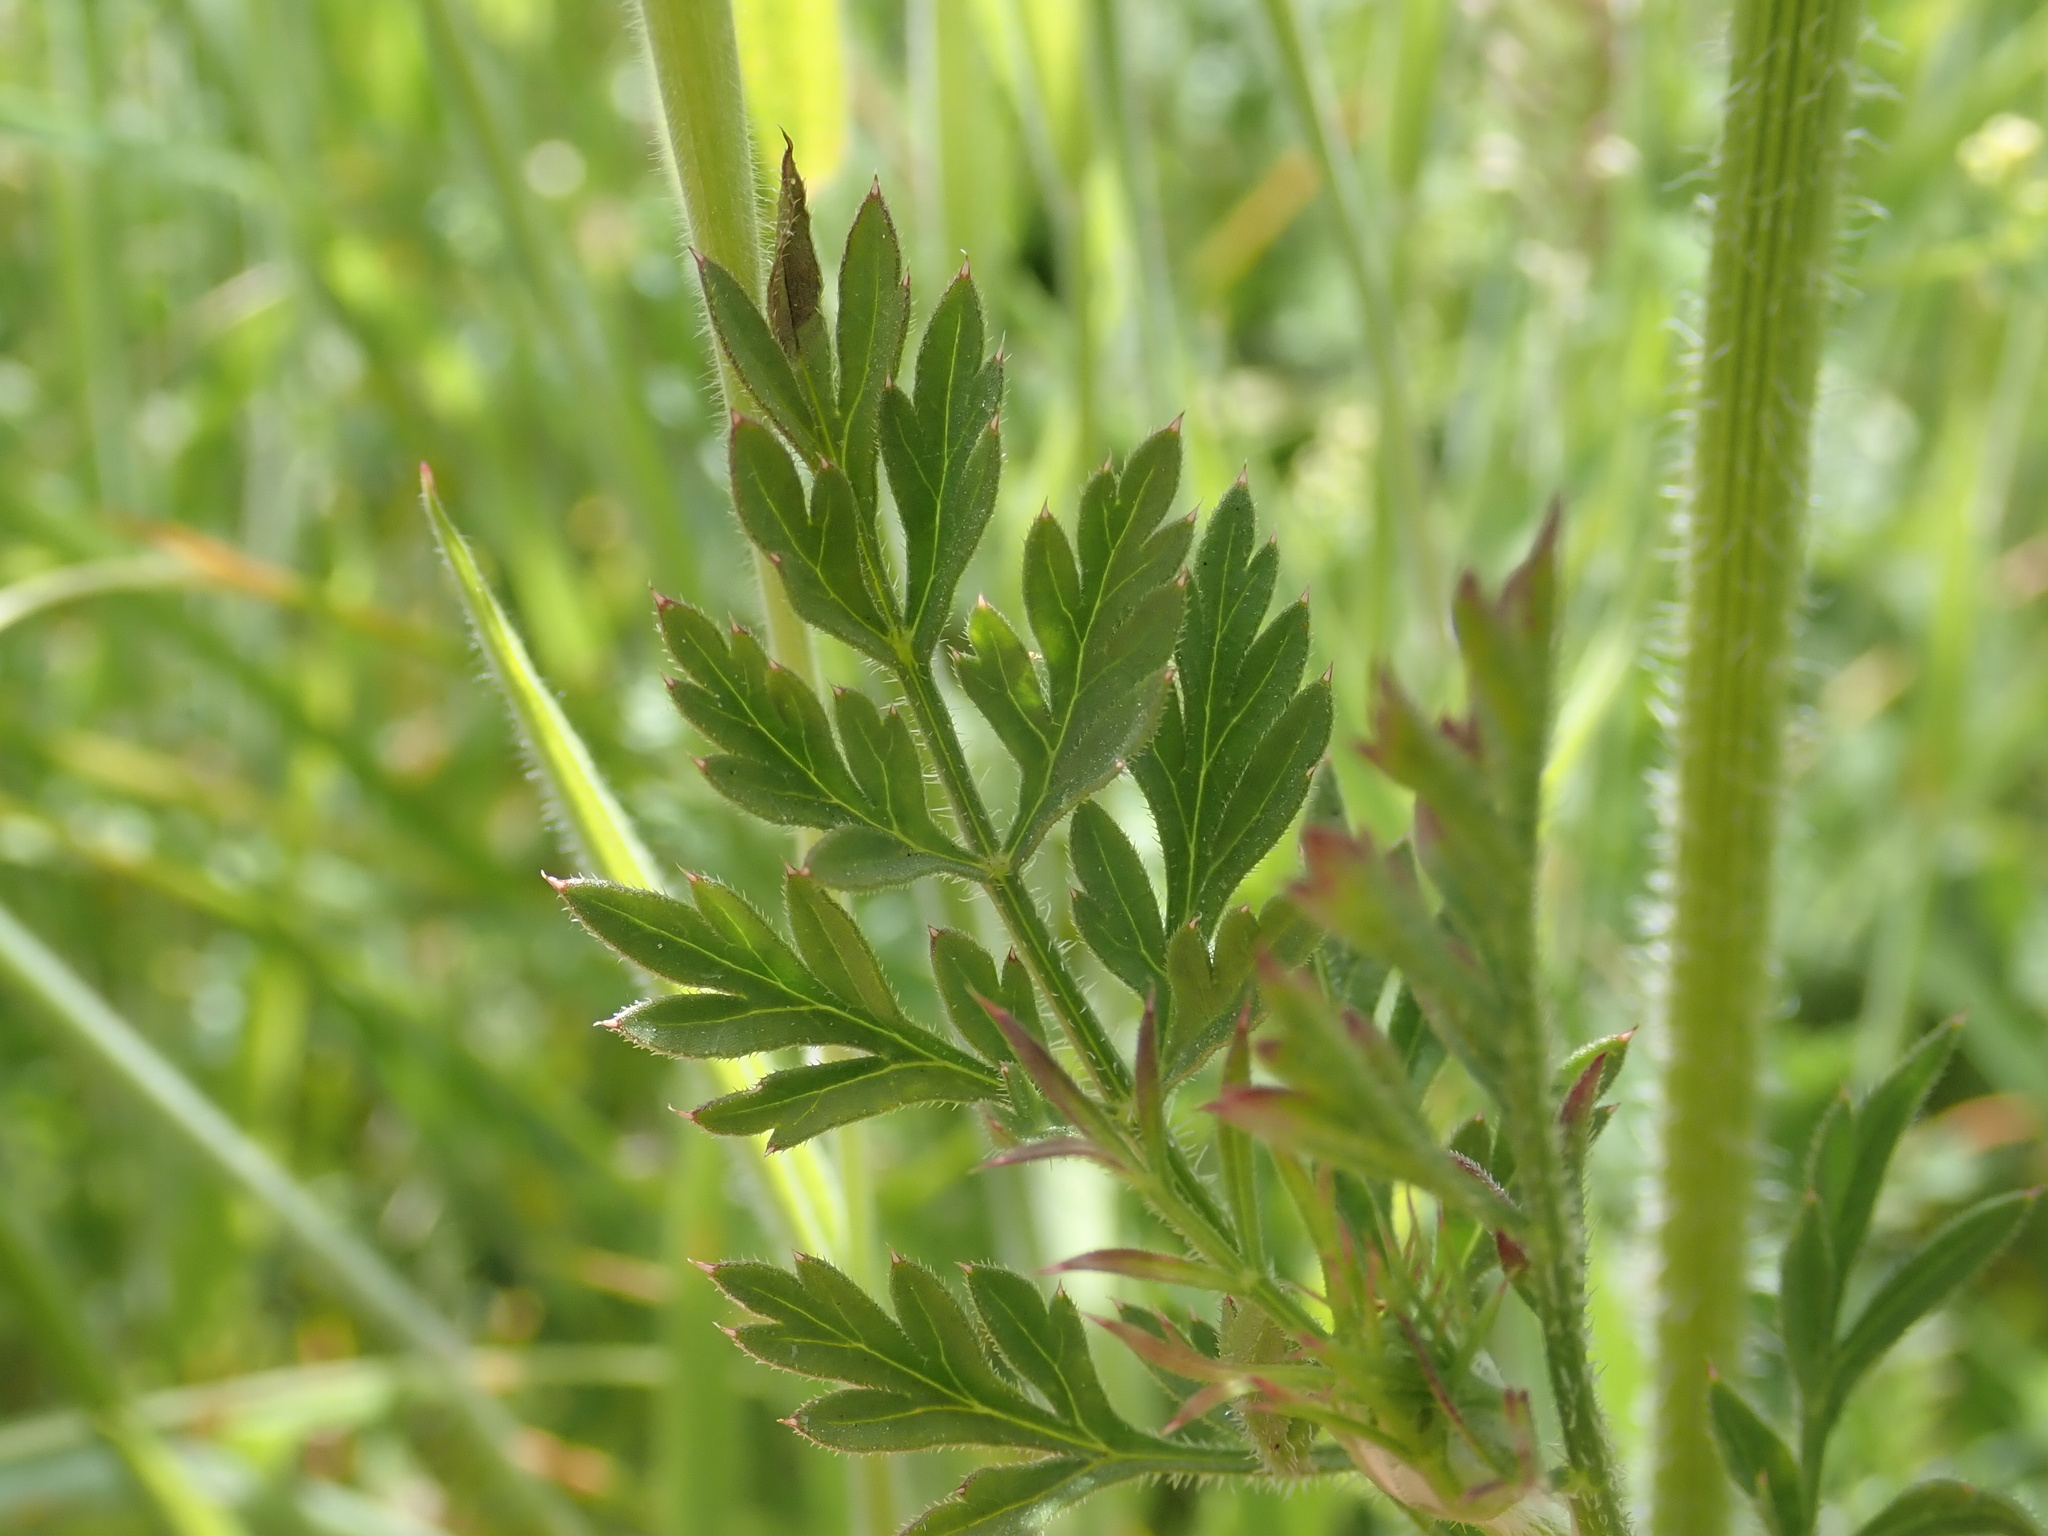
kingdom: Plantae
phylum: Tracheophyta
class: Magnoliopsida
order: Apiales
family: Apiaceae
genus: Daucus
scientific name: Daucus carota
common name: Wild carrot
